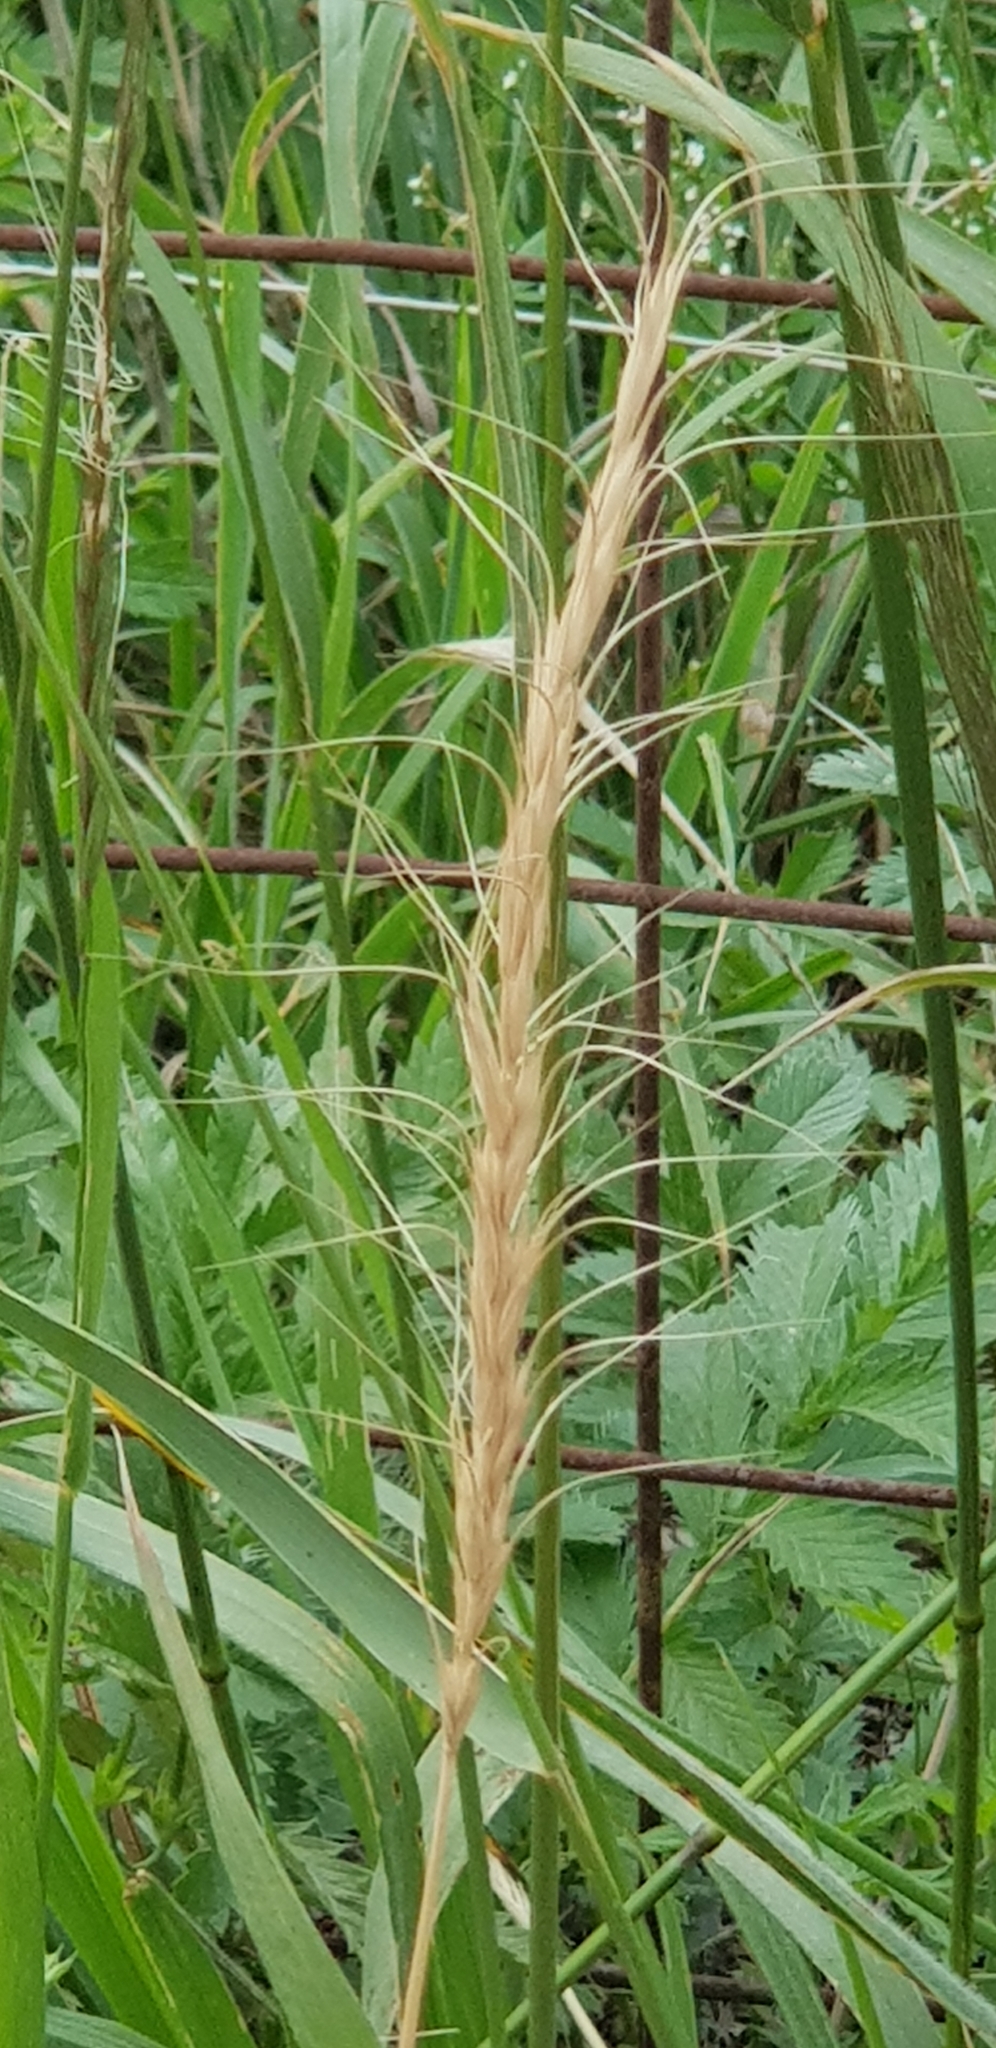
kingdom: Plantae
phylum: Tracheophyta
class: Liliopsida
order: Poales
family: Poaceae
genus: Achnatherum
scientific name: Achnatherum sibiricum
